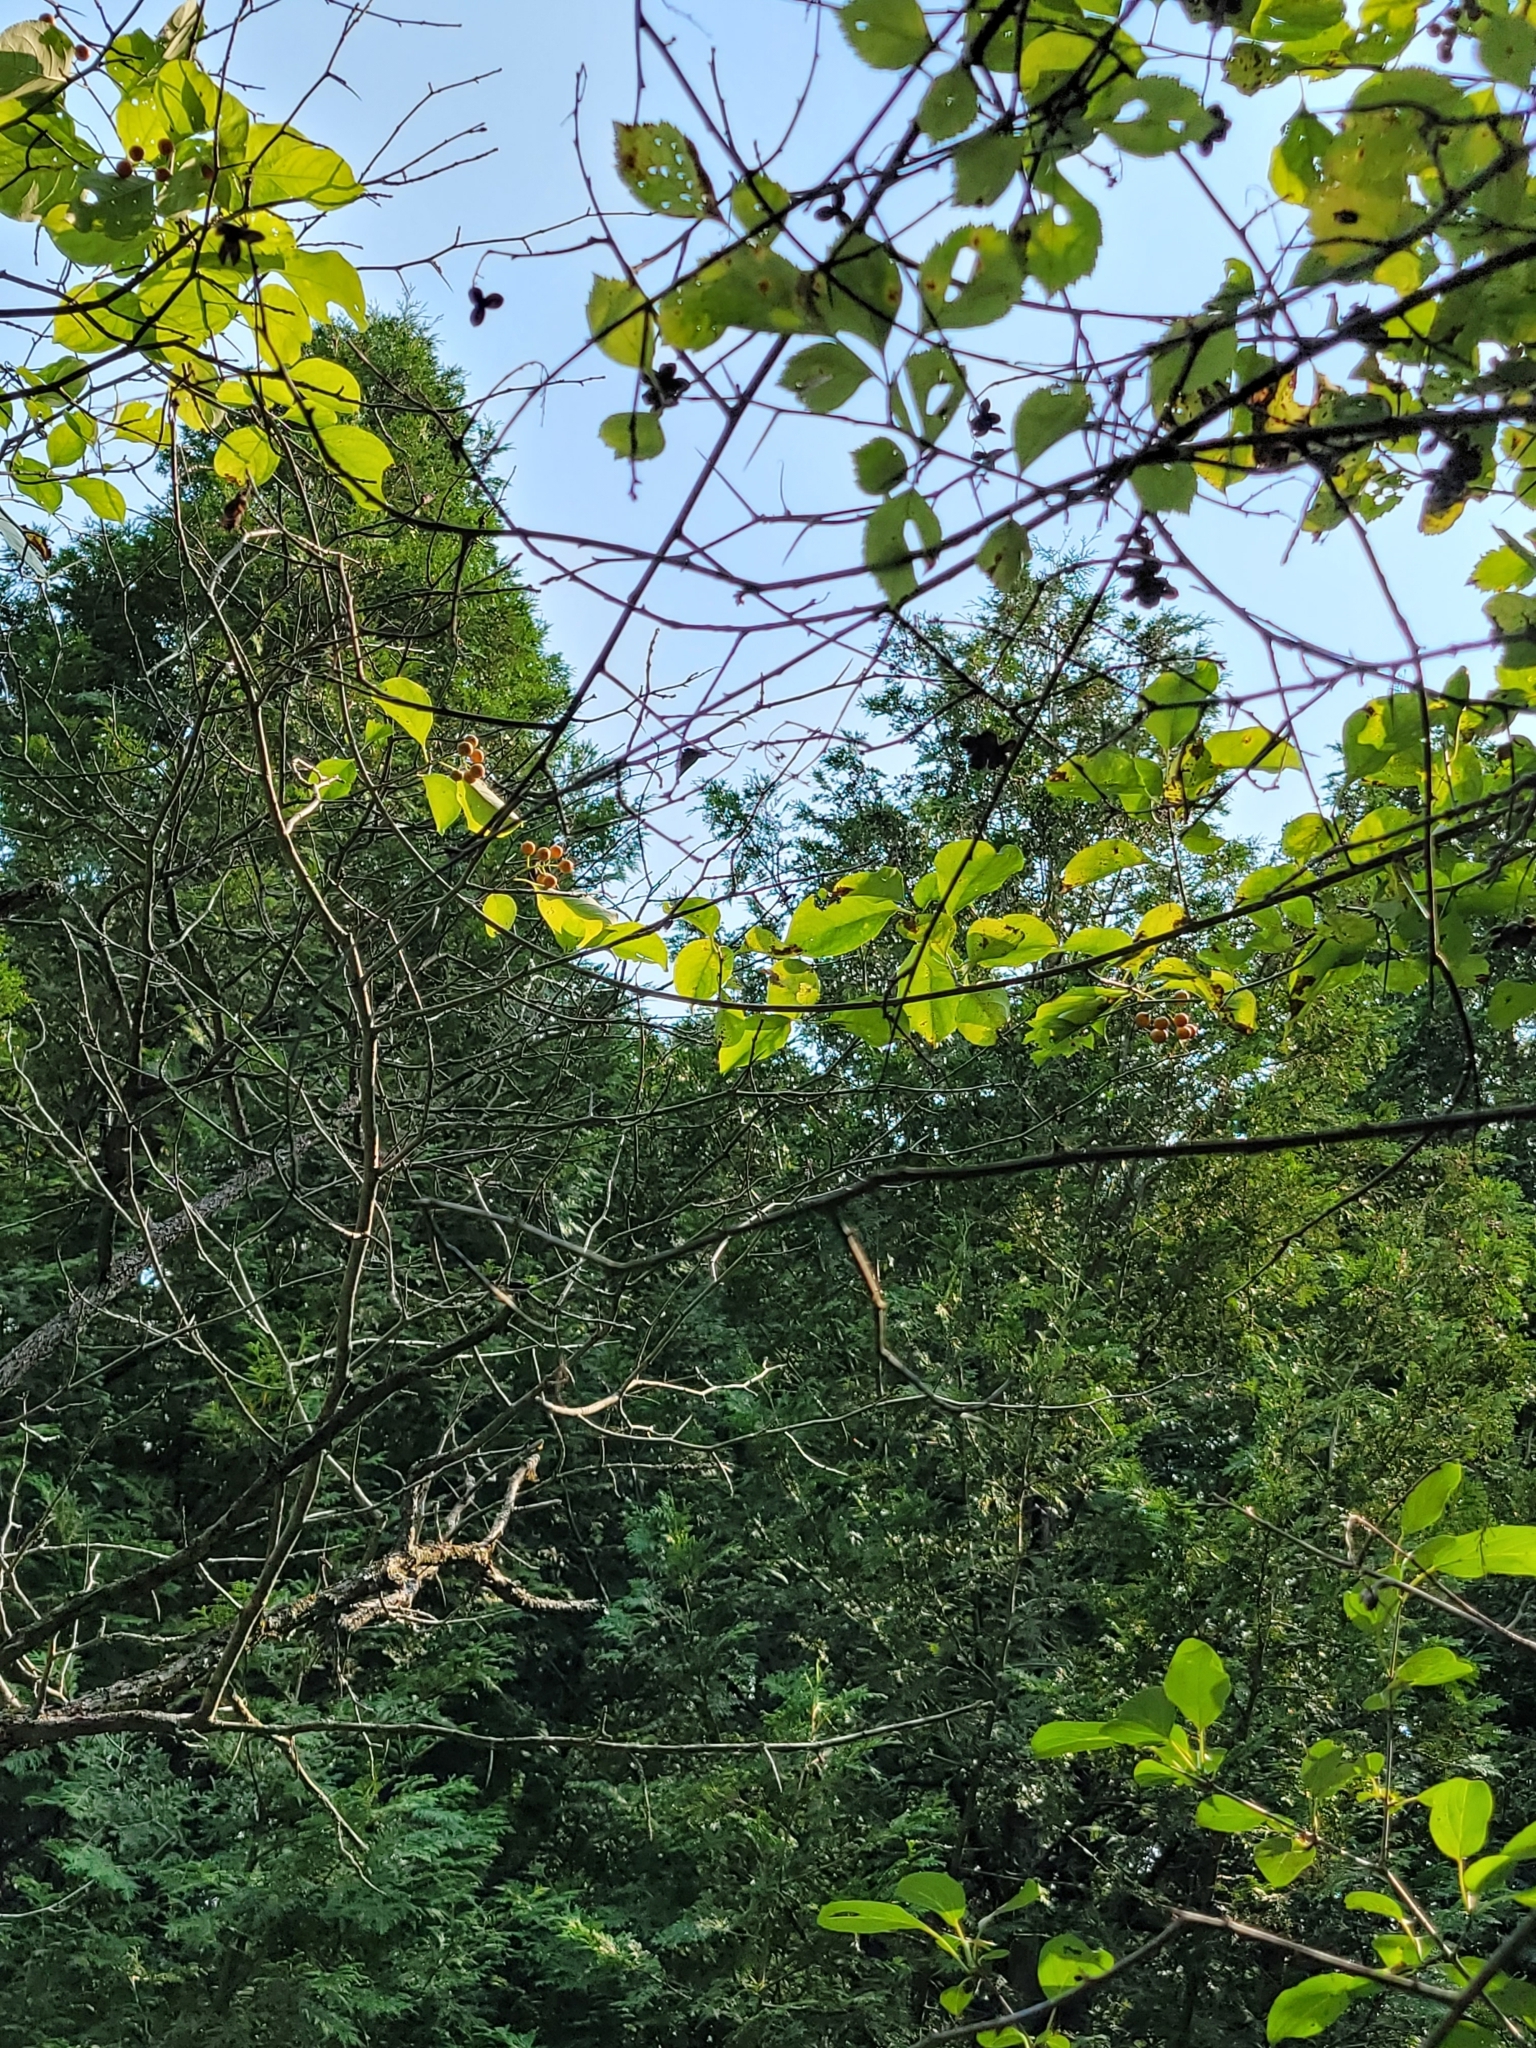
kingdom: Plantae
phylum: Tracheophyta
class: Magnoliopsida
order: Celastrales
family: Celastraceae
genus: Celastrus
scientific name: Celastrus scandens
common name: American bittersweet
